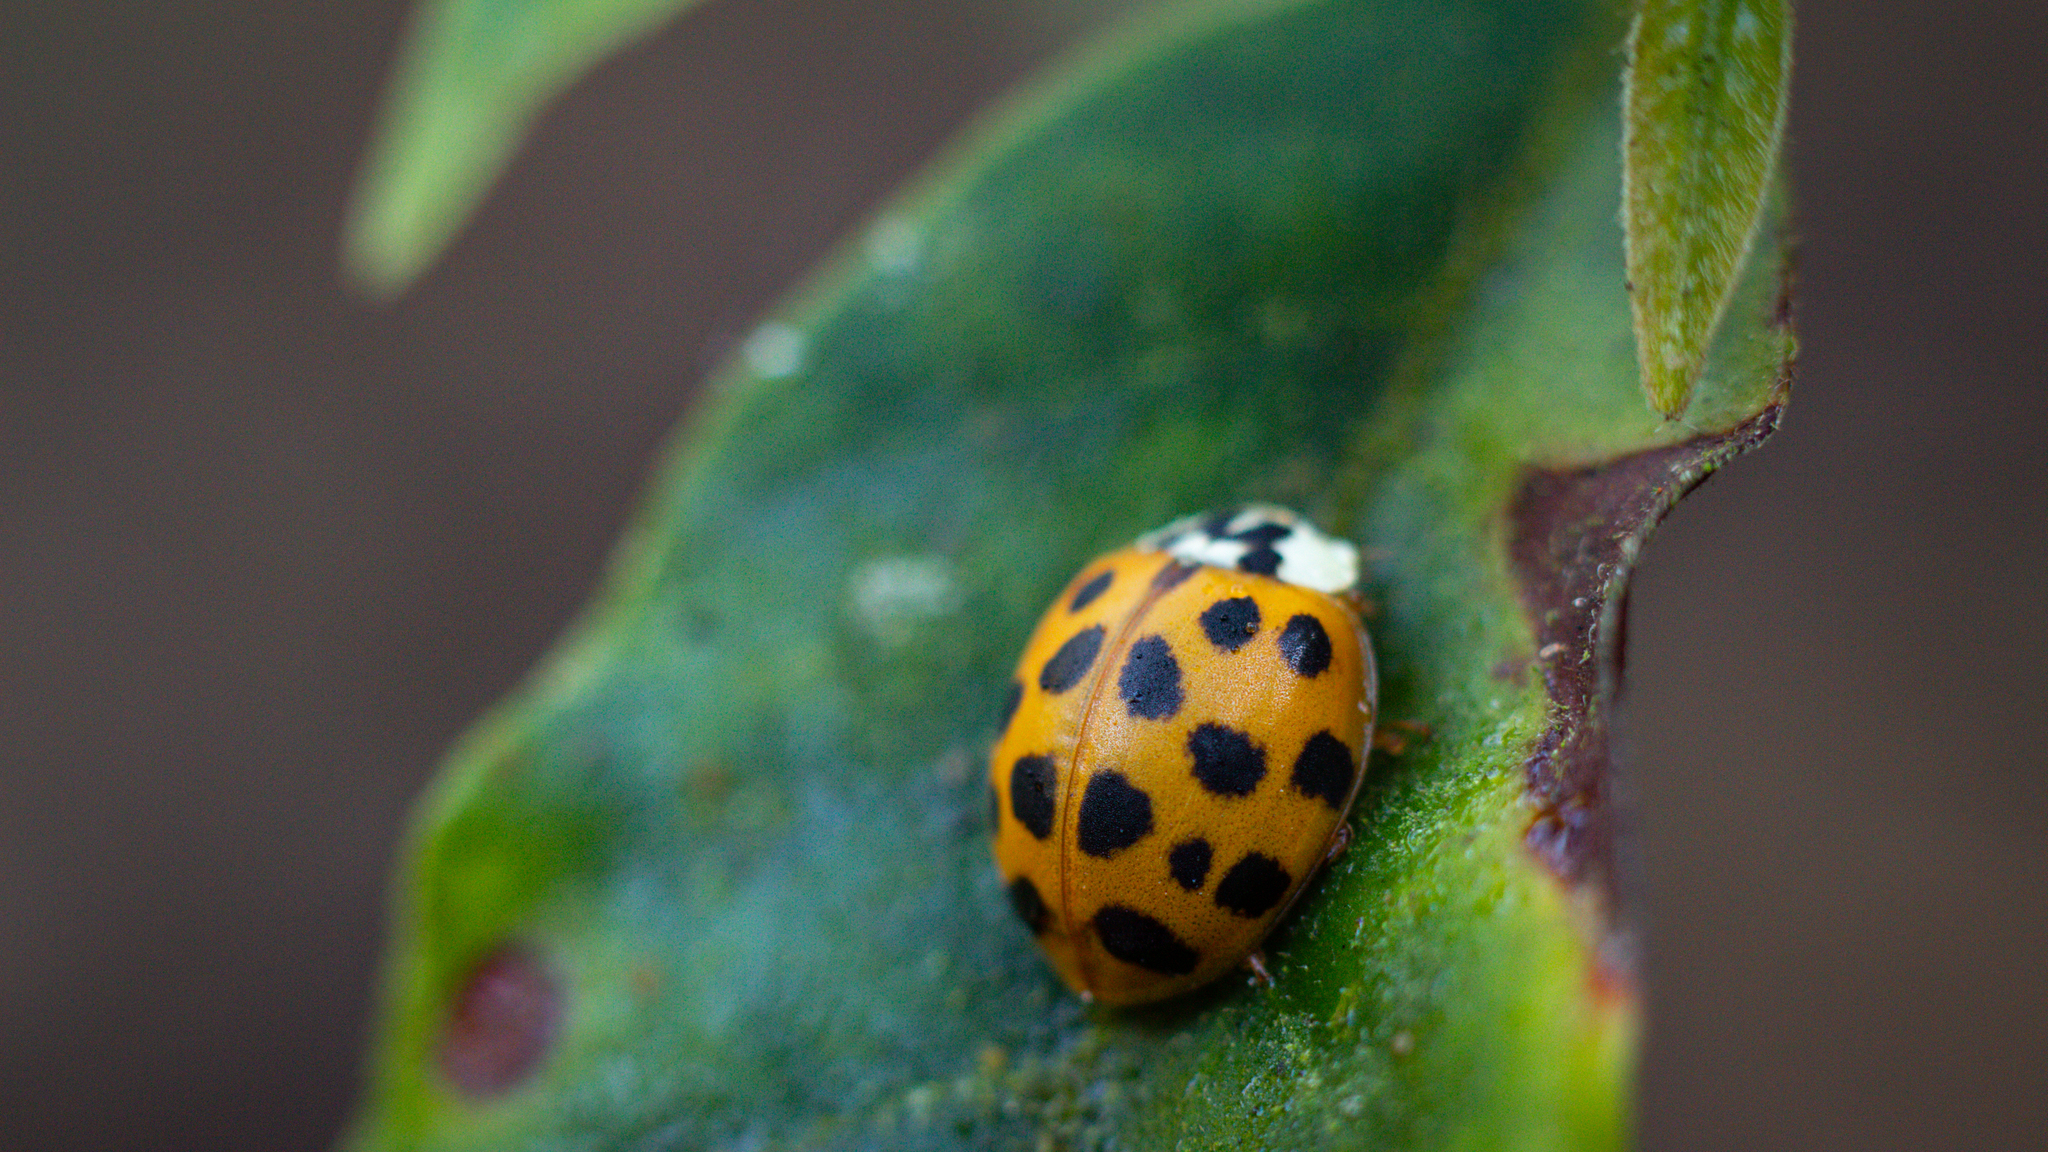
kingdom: Animalia
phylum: Arthropoda
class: Insecta
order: Coleoptera
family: Coccinellidae
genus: Harmonia
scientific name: Harmonia axyridis
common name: Harlequin ladybird
